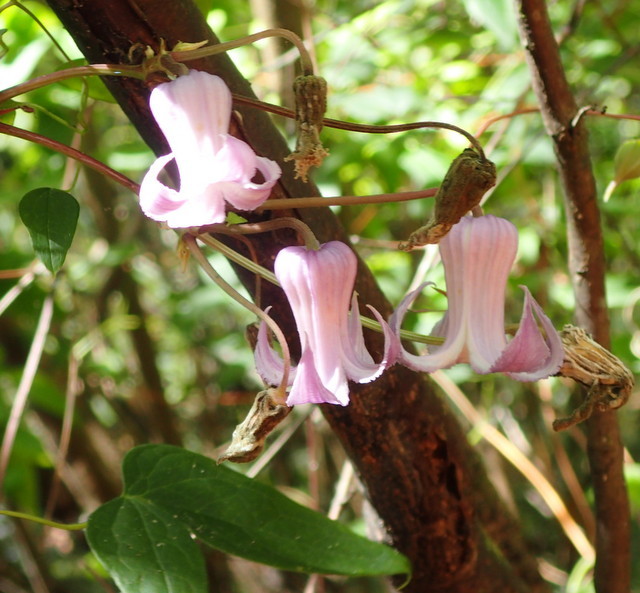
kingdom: Plantae
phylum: Tracheophyta
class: Magnoliopsida
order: Ranunculales
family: Ranunculaceae
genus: Clematis
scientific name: Clematis crispa
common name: Curly clematis
